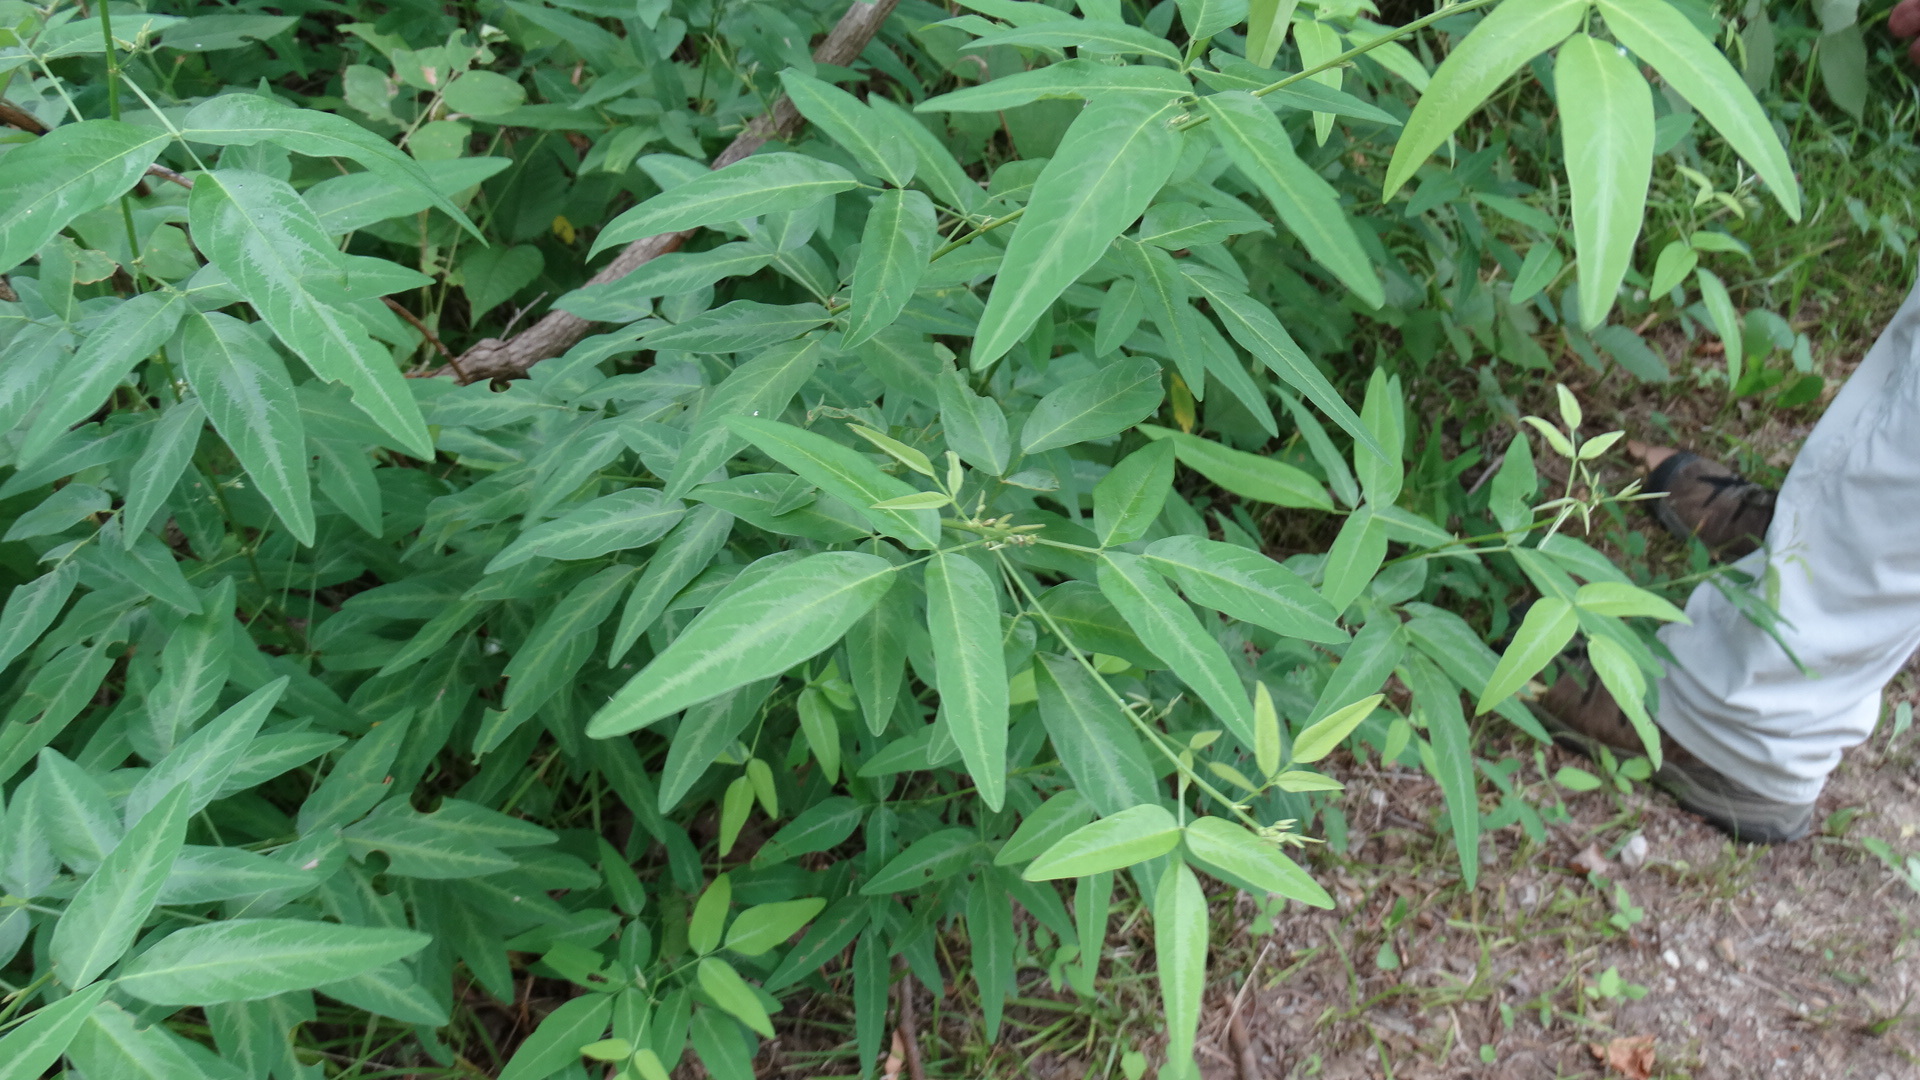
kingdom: Plantae
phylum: Tracheophyta
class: Magnoliopsida
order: Fabales
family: Fabaceae
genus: Desmodium
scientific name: Desmodium paniculatum
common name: Panicled tick-clover
